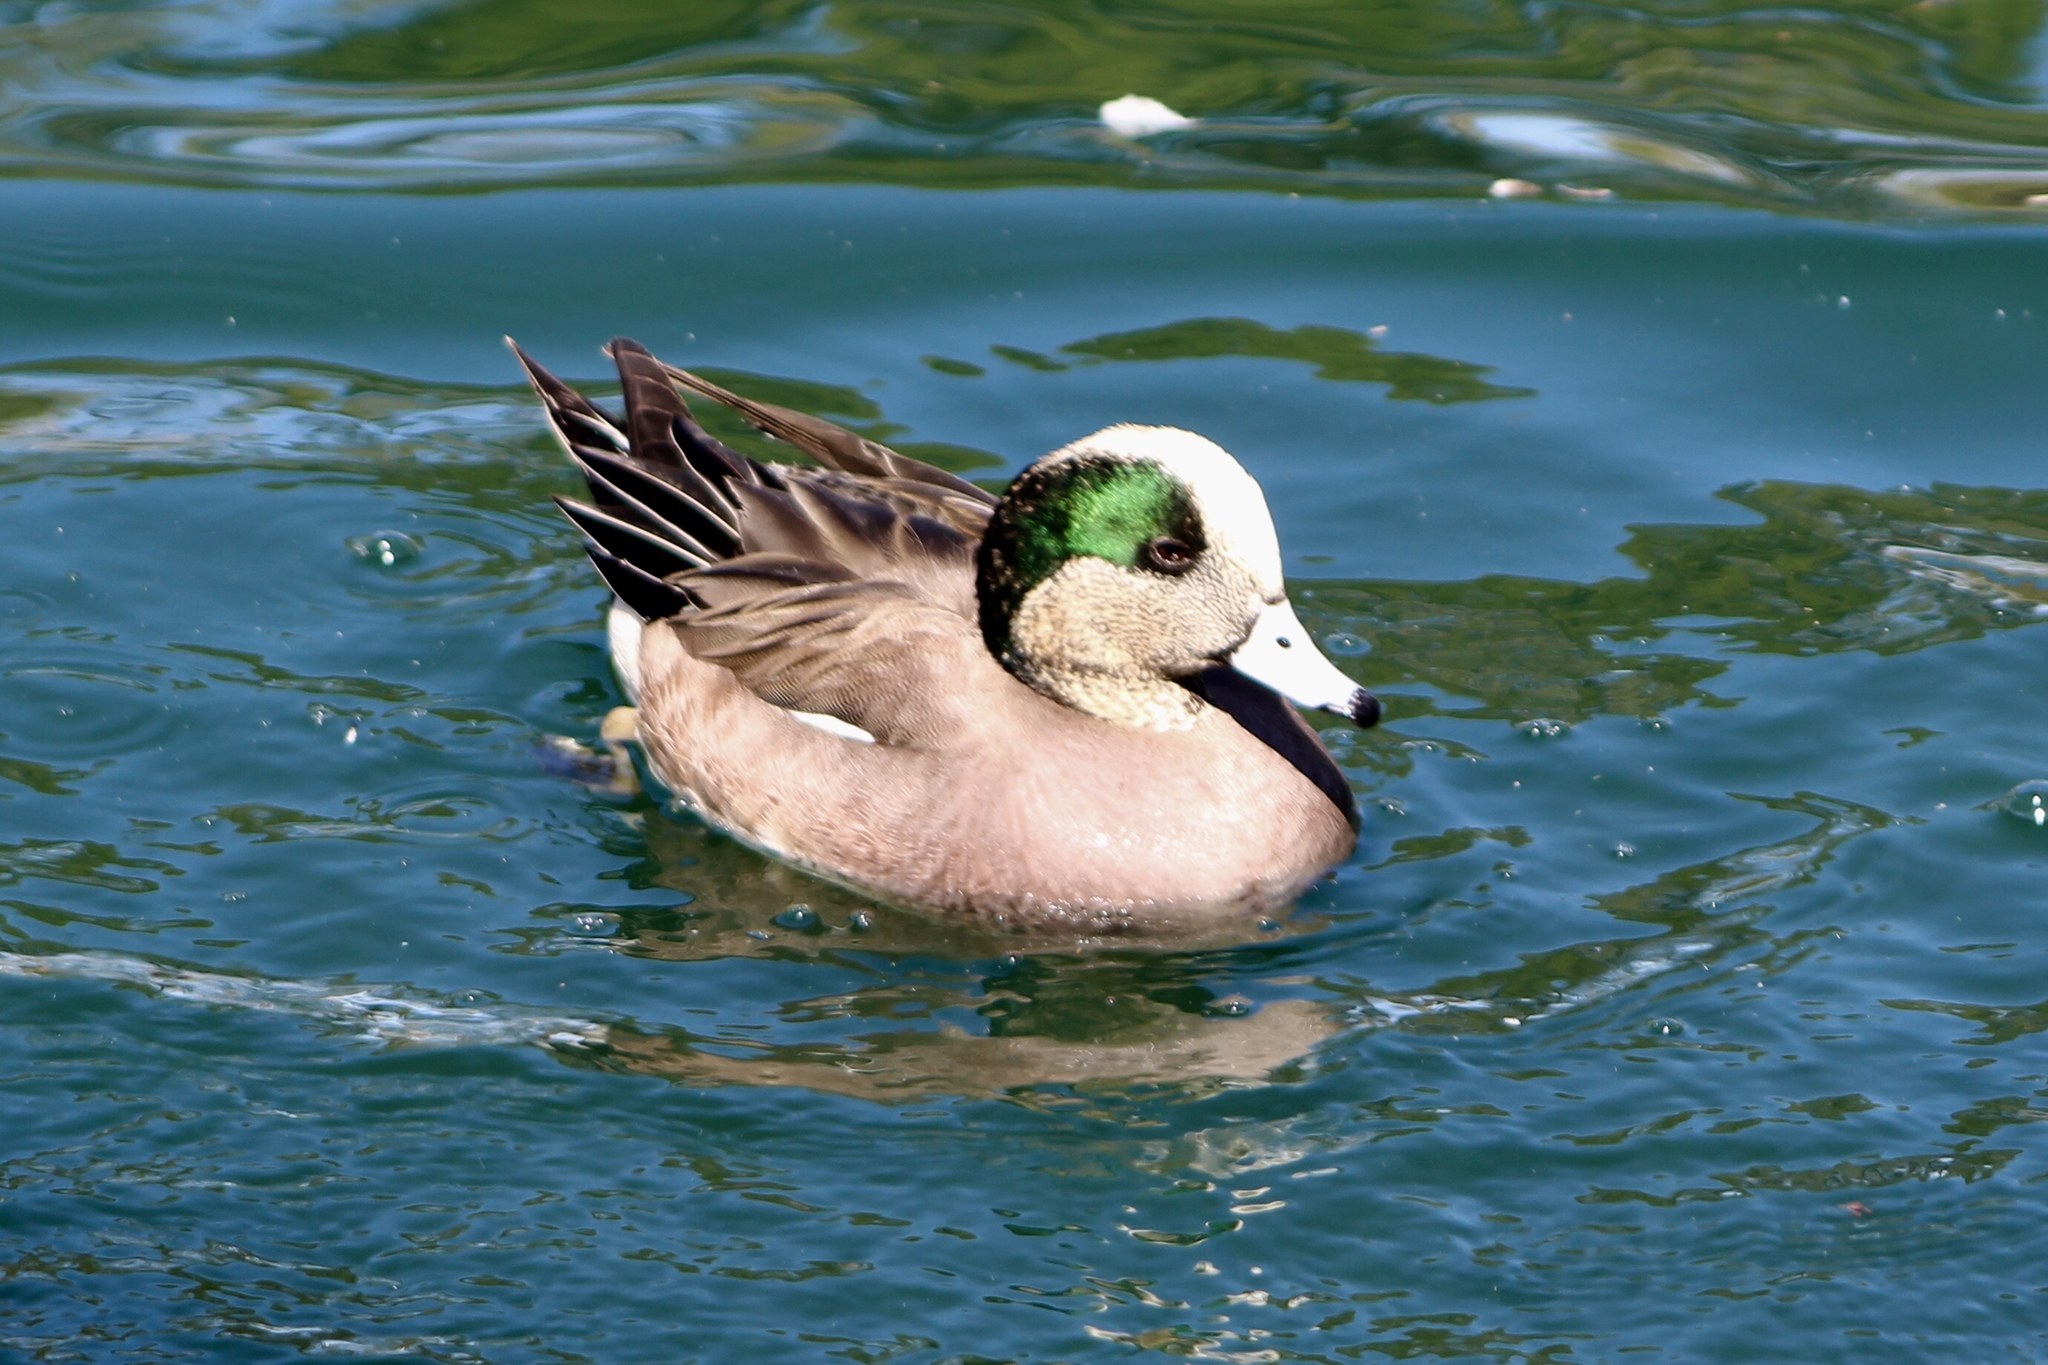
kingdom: Animalia
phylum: Chordata
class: Aves
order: Anseriformes
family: Anatidae
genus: Mareca
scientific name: Mareca americana
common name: American wigeon
